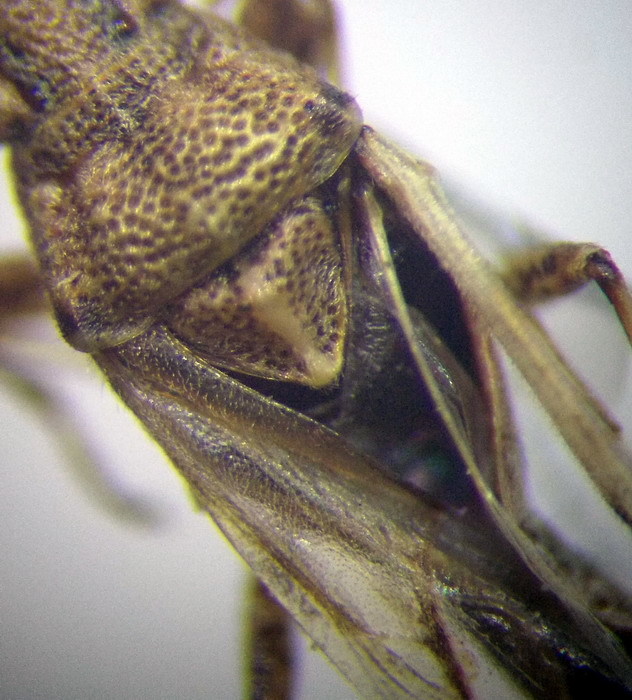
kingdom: Animalia
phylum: Arthropoda
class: Insecta
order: Hemiptera
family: Lygaeidae
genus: Nysius
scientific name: Nysius helveticus
